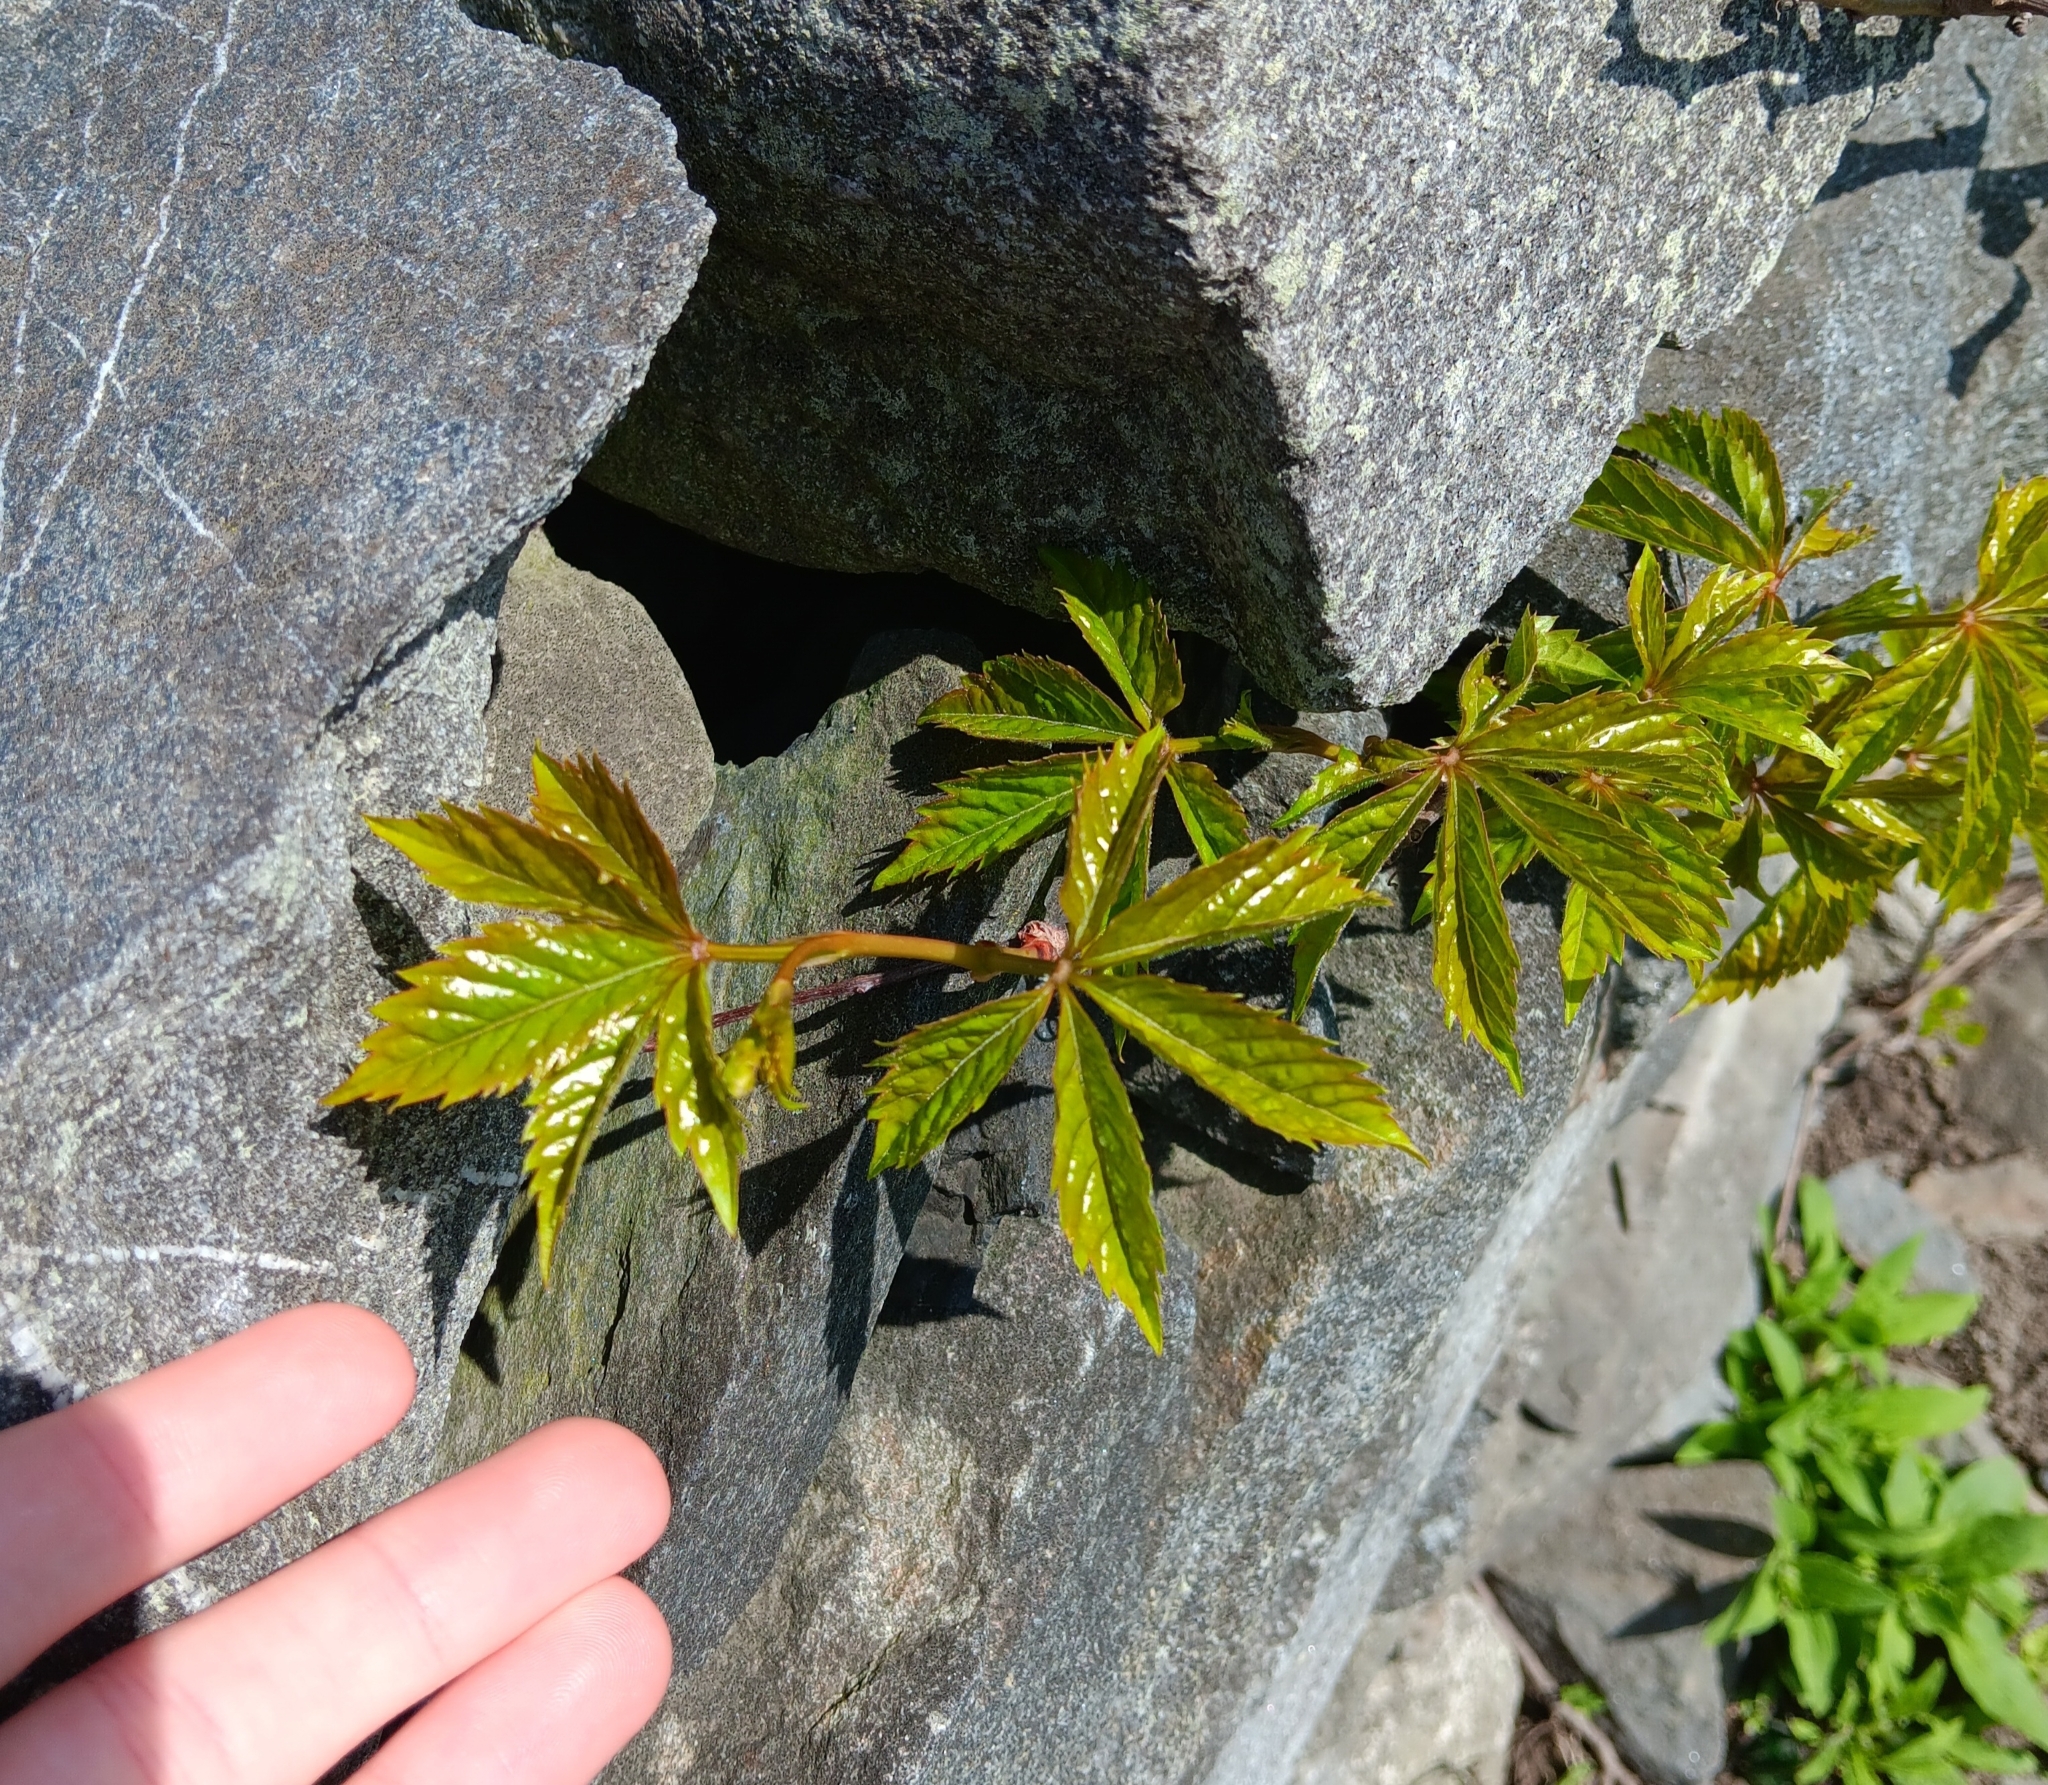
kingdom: Plantae
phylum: Tracheophyta
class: Magnoliopsida
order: Vitales
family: Vitaceae
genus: Parthenocissus
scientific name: Parthenocissus quinquefolia
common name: Virginia-creeper
